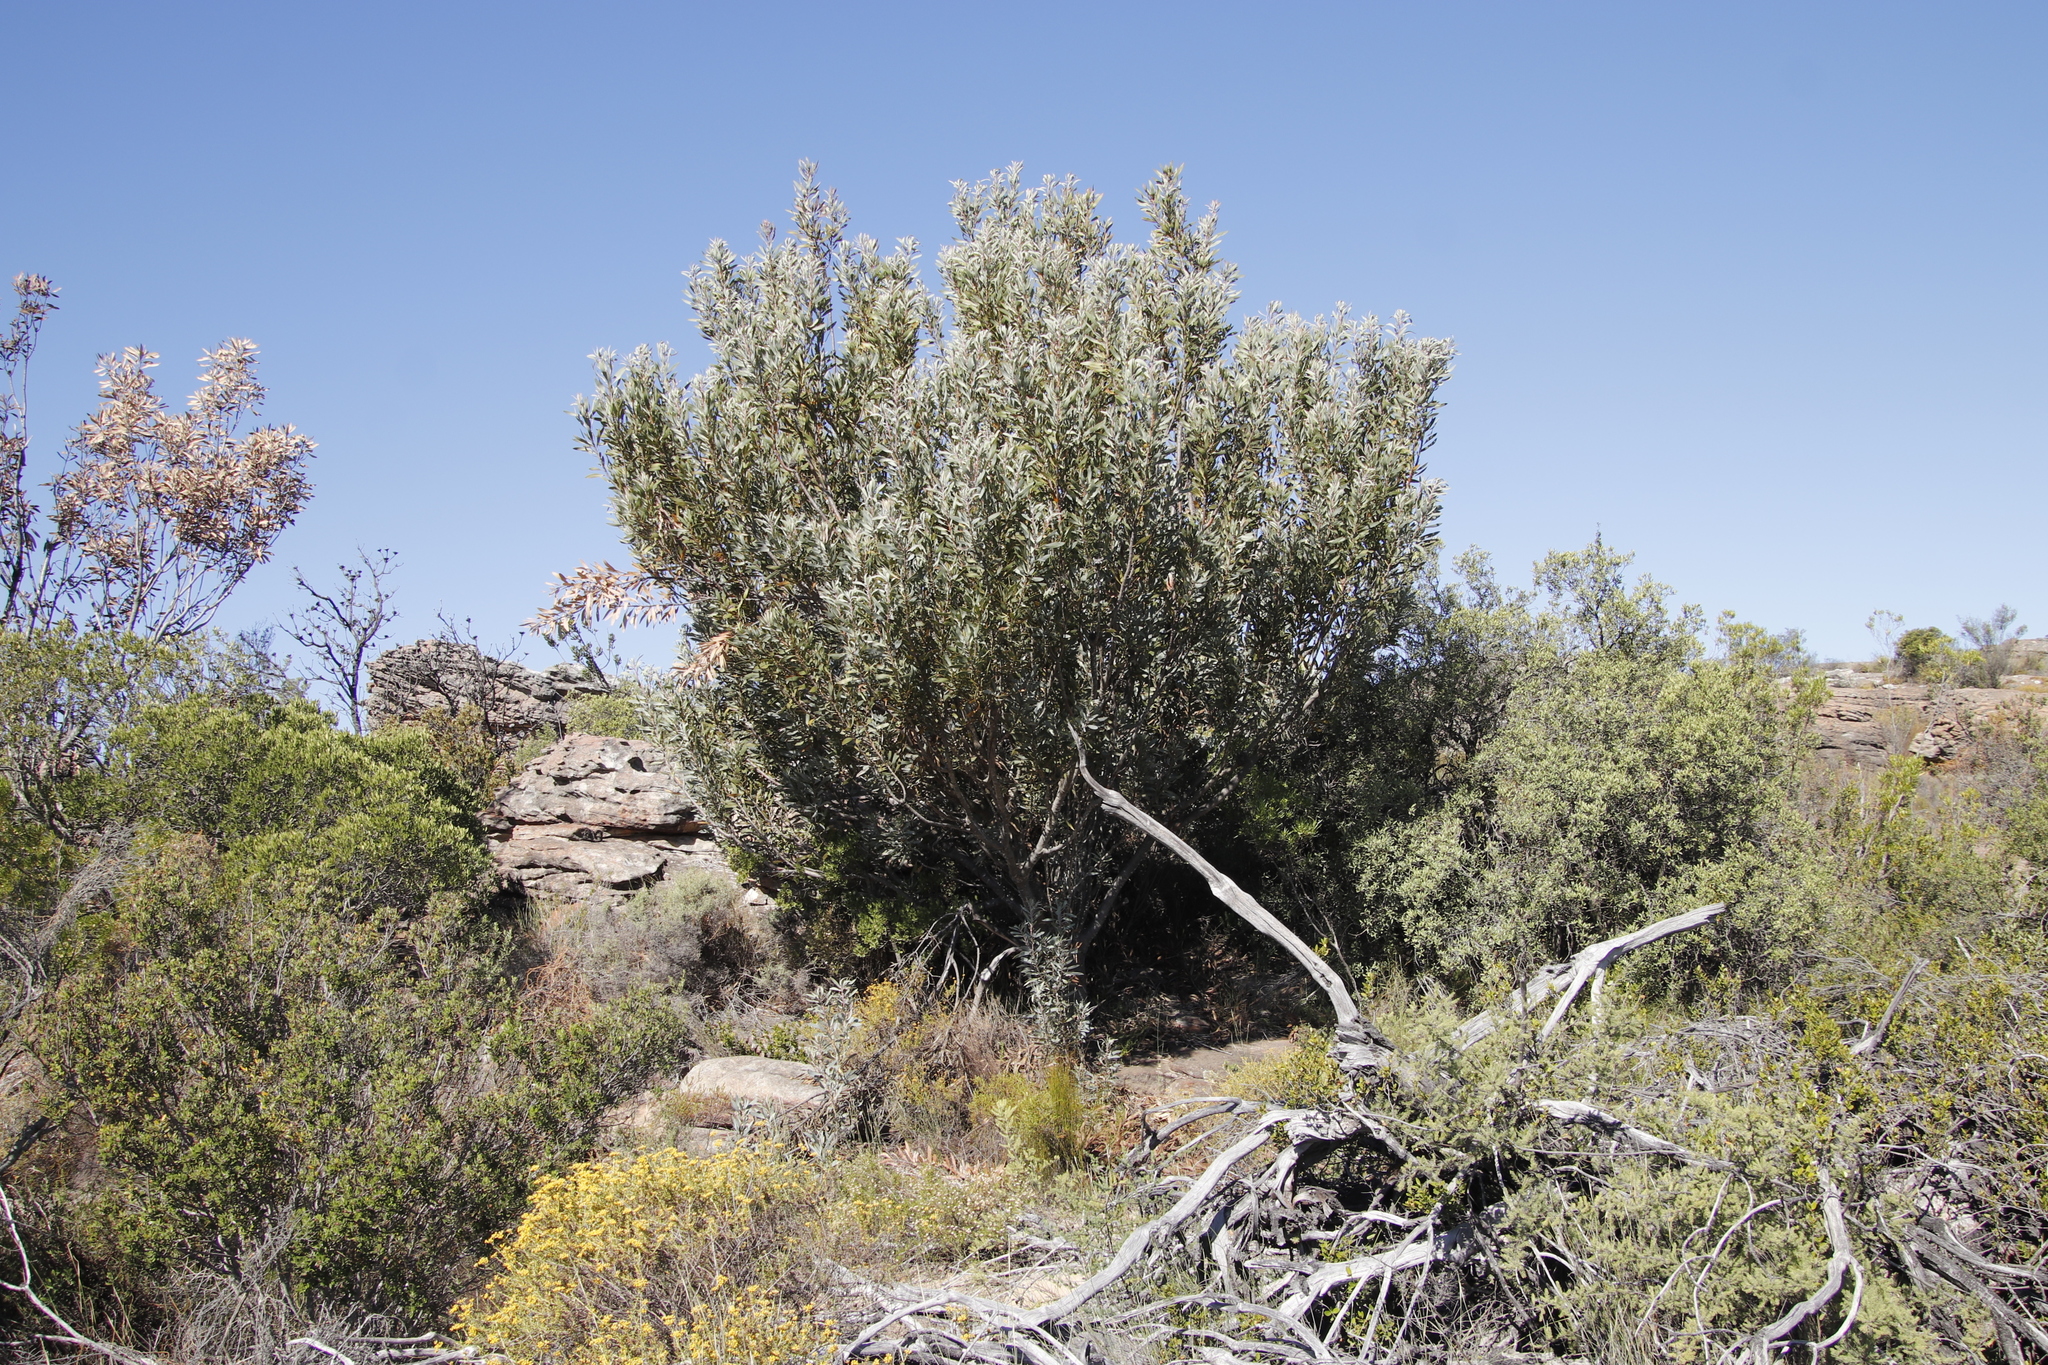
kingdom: Plantae
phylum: Tracheophyta
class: Magnoliopsida
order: Proteales
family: Proteaceae
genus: Protea
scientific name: Protea laurifolia
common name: Grey-leaf sugarbsh
